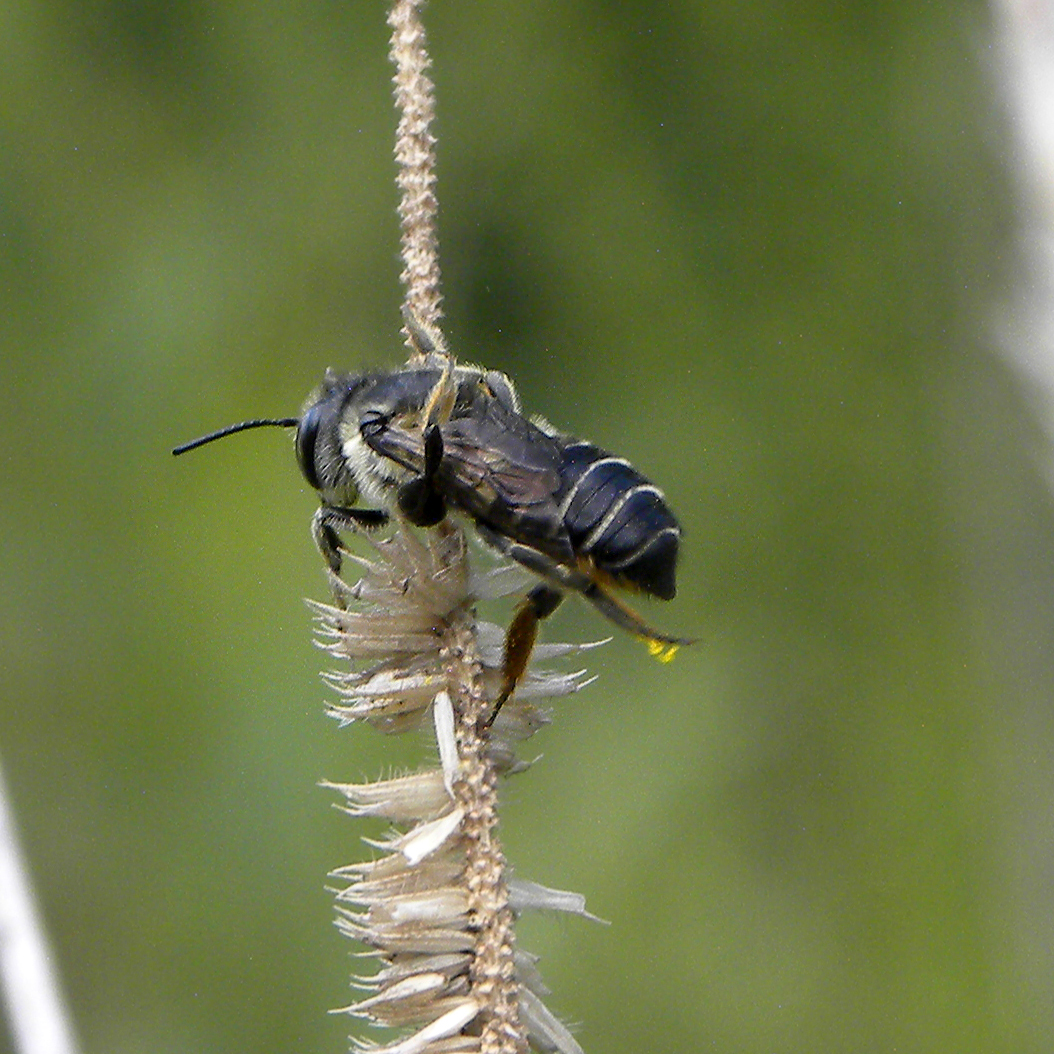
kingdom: Animalia
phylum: Arthropoda
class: Insecta
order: Hymenoptera
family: Megachilidae
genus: Megachile
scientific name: Megachile
